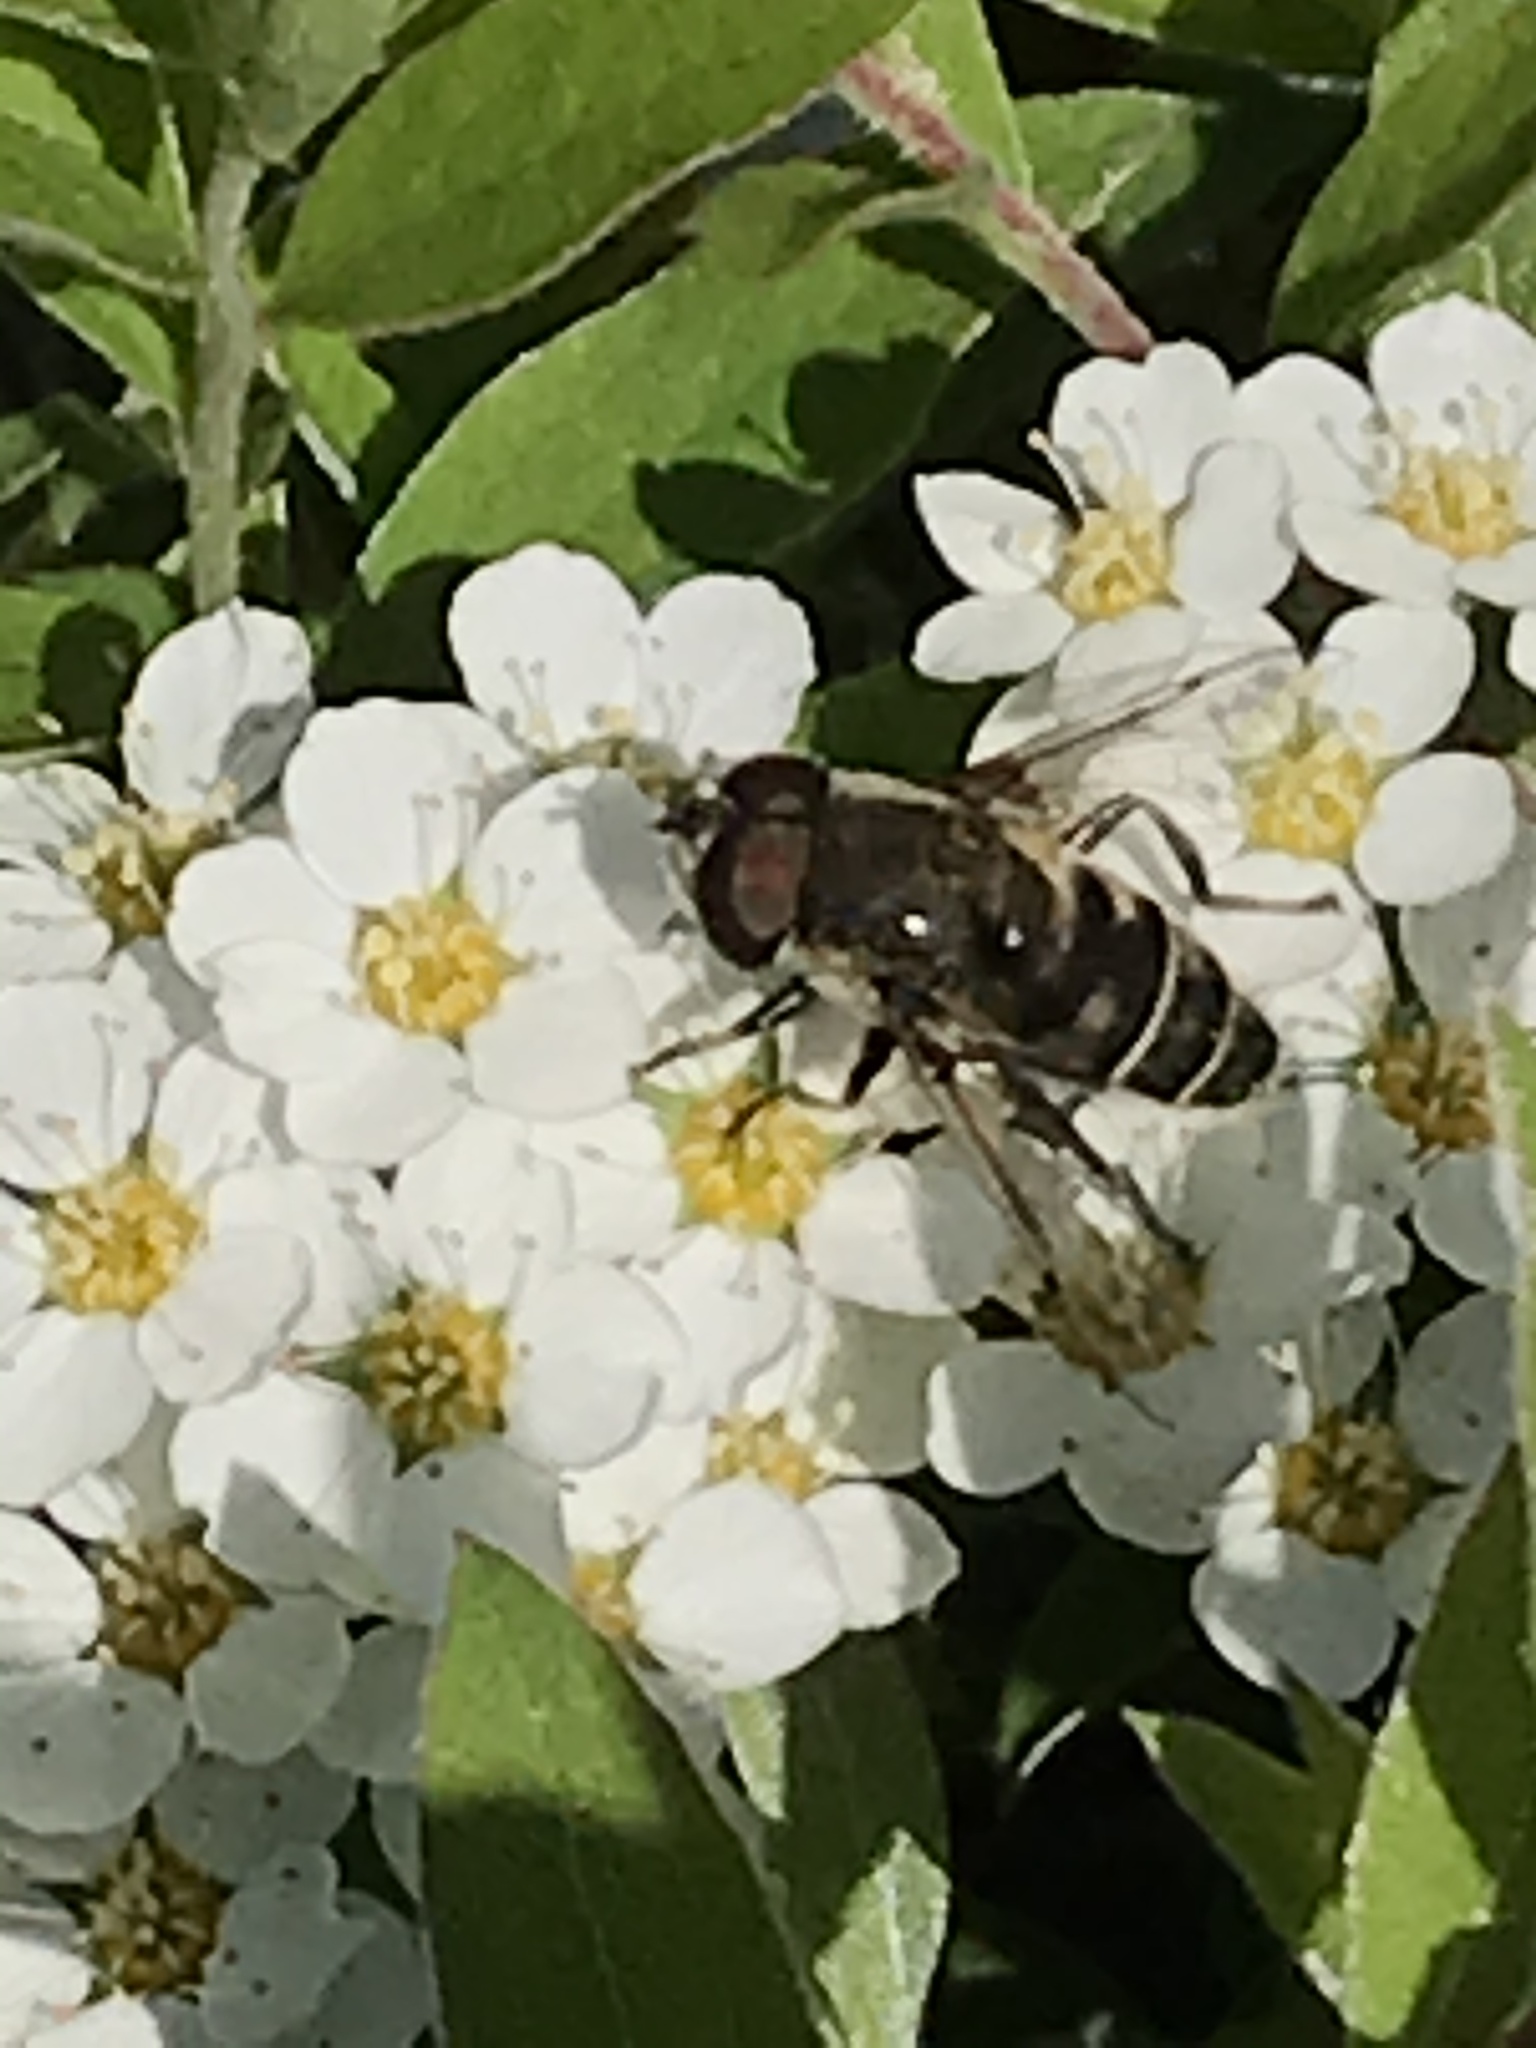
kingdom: Animalia
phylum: Arthropoda
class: Insecta
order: Diptera
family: Syrphidae
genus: Eristalis
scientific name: Eristalis dimidiata
